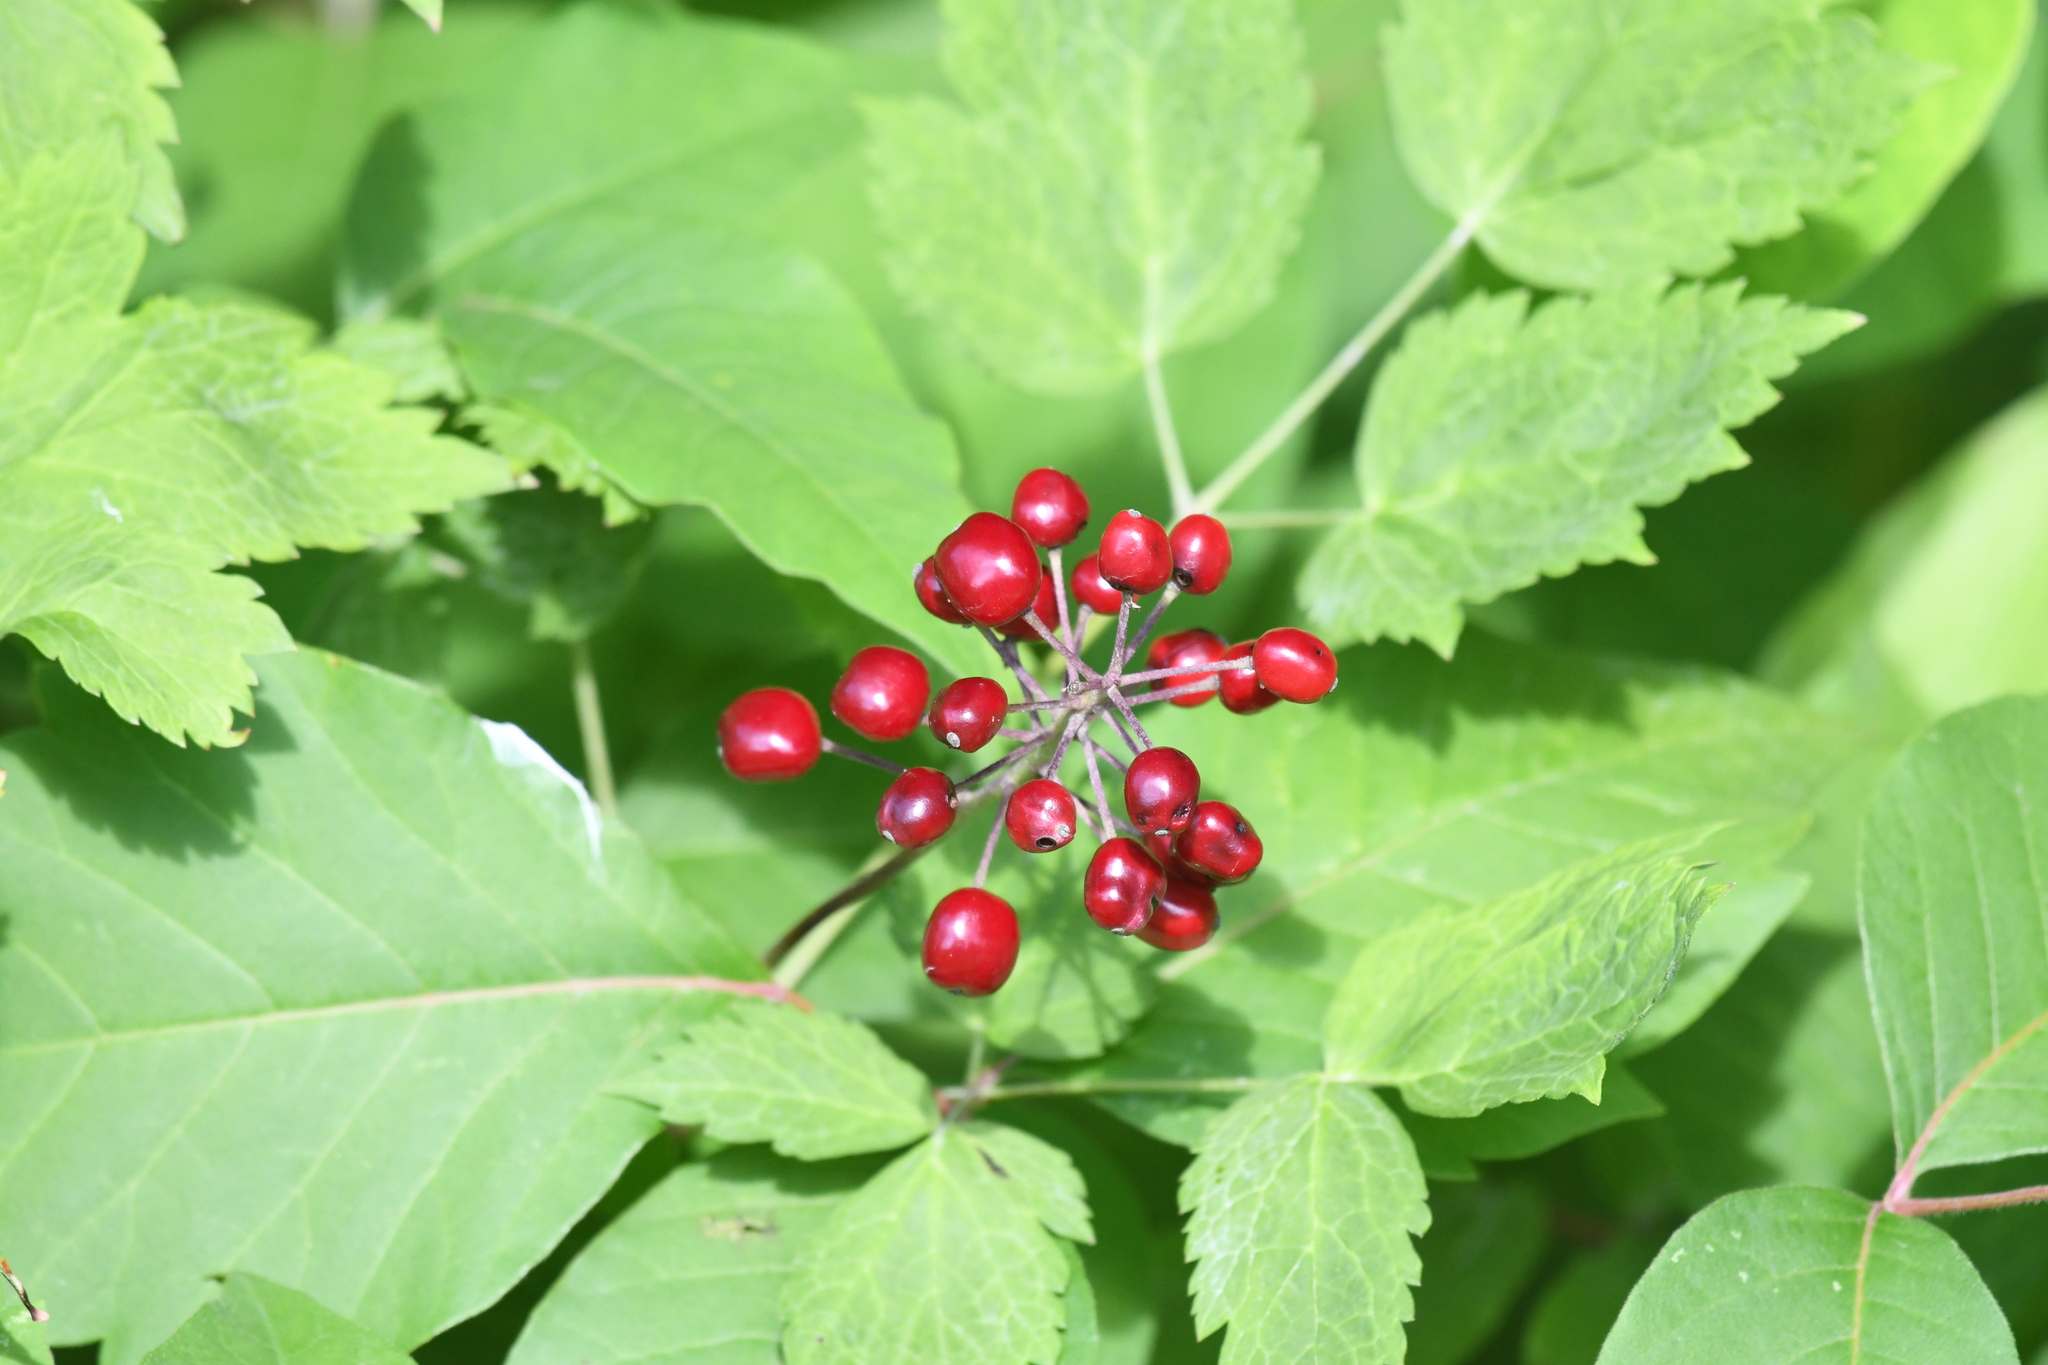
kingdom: Plantae
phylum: Tracheophyta
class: Magnoliopsida
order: Ranunculales
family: Ranunculaceae
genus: Actaea
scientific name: Actaea rubra
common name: Red baneberry
